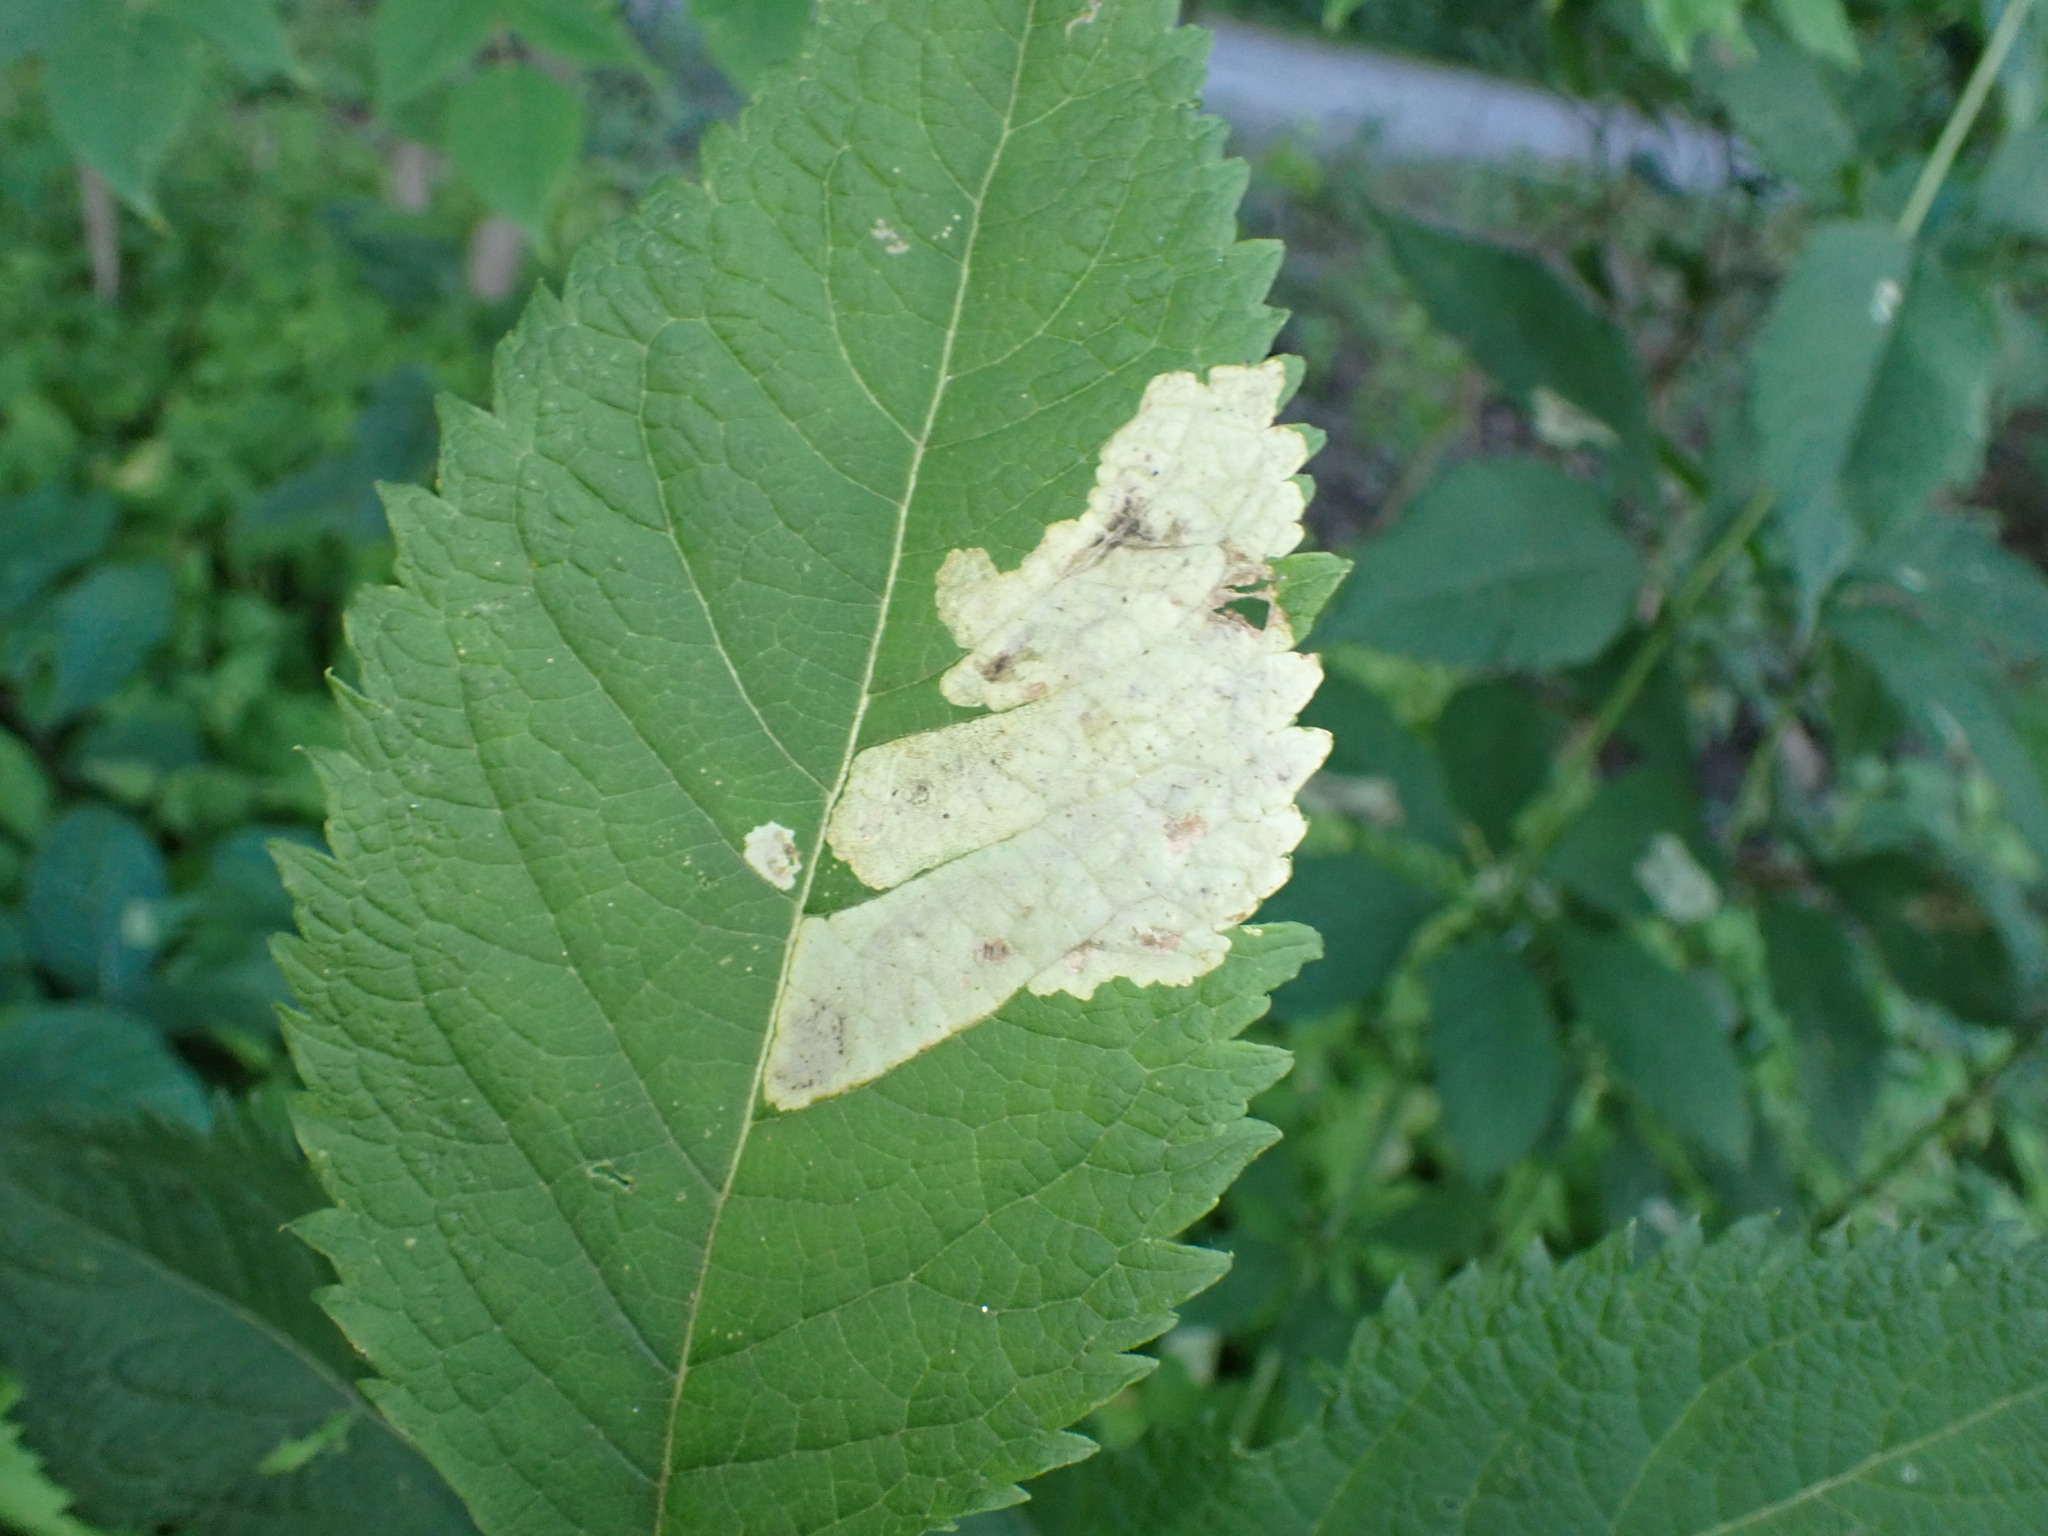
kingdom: Animalia
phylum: Arthropoda
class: Insecta
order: Diptera
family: Agromyzidae
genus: Calycomyza
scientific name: Calycomyza flavinotum
